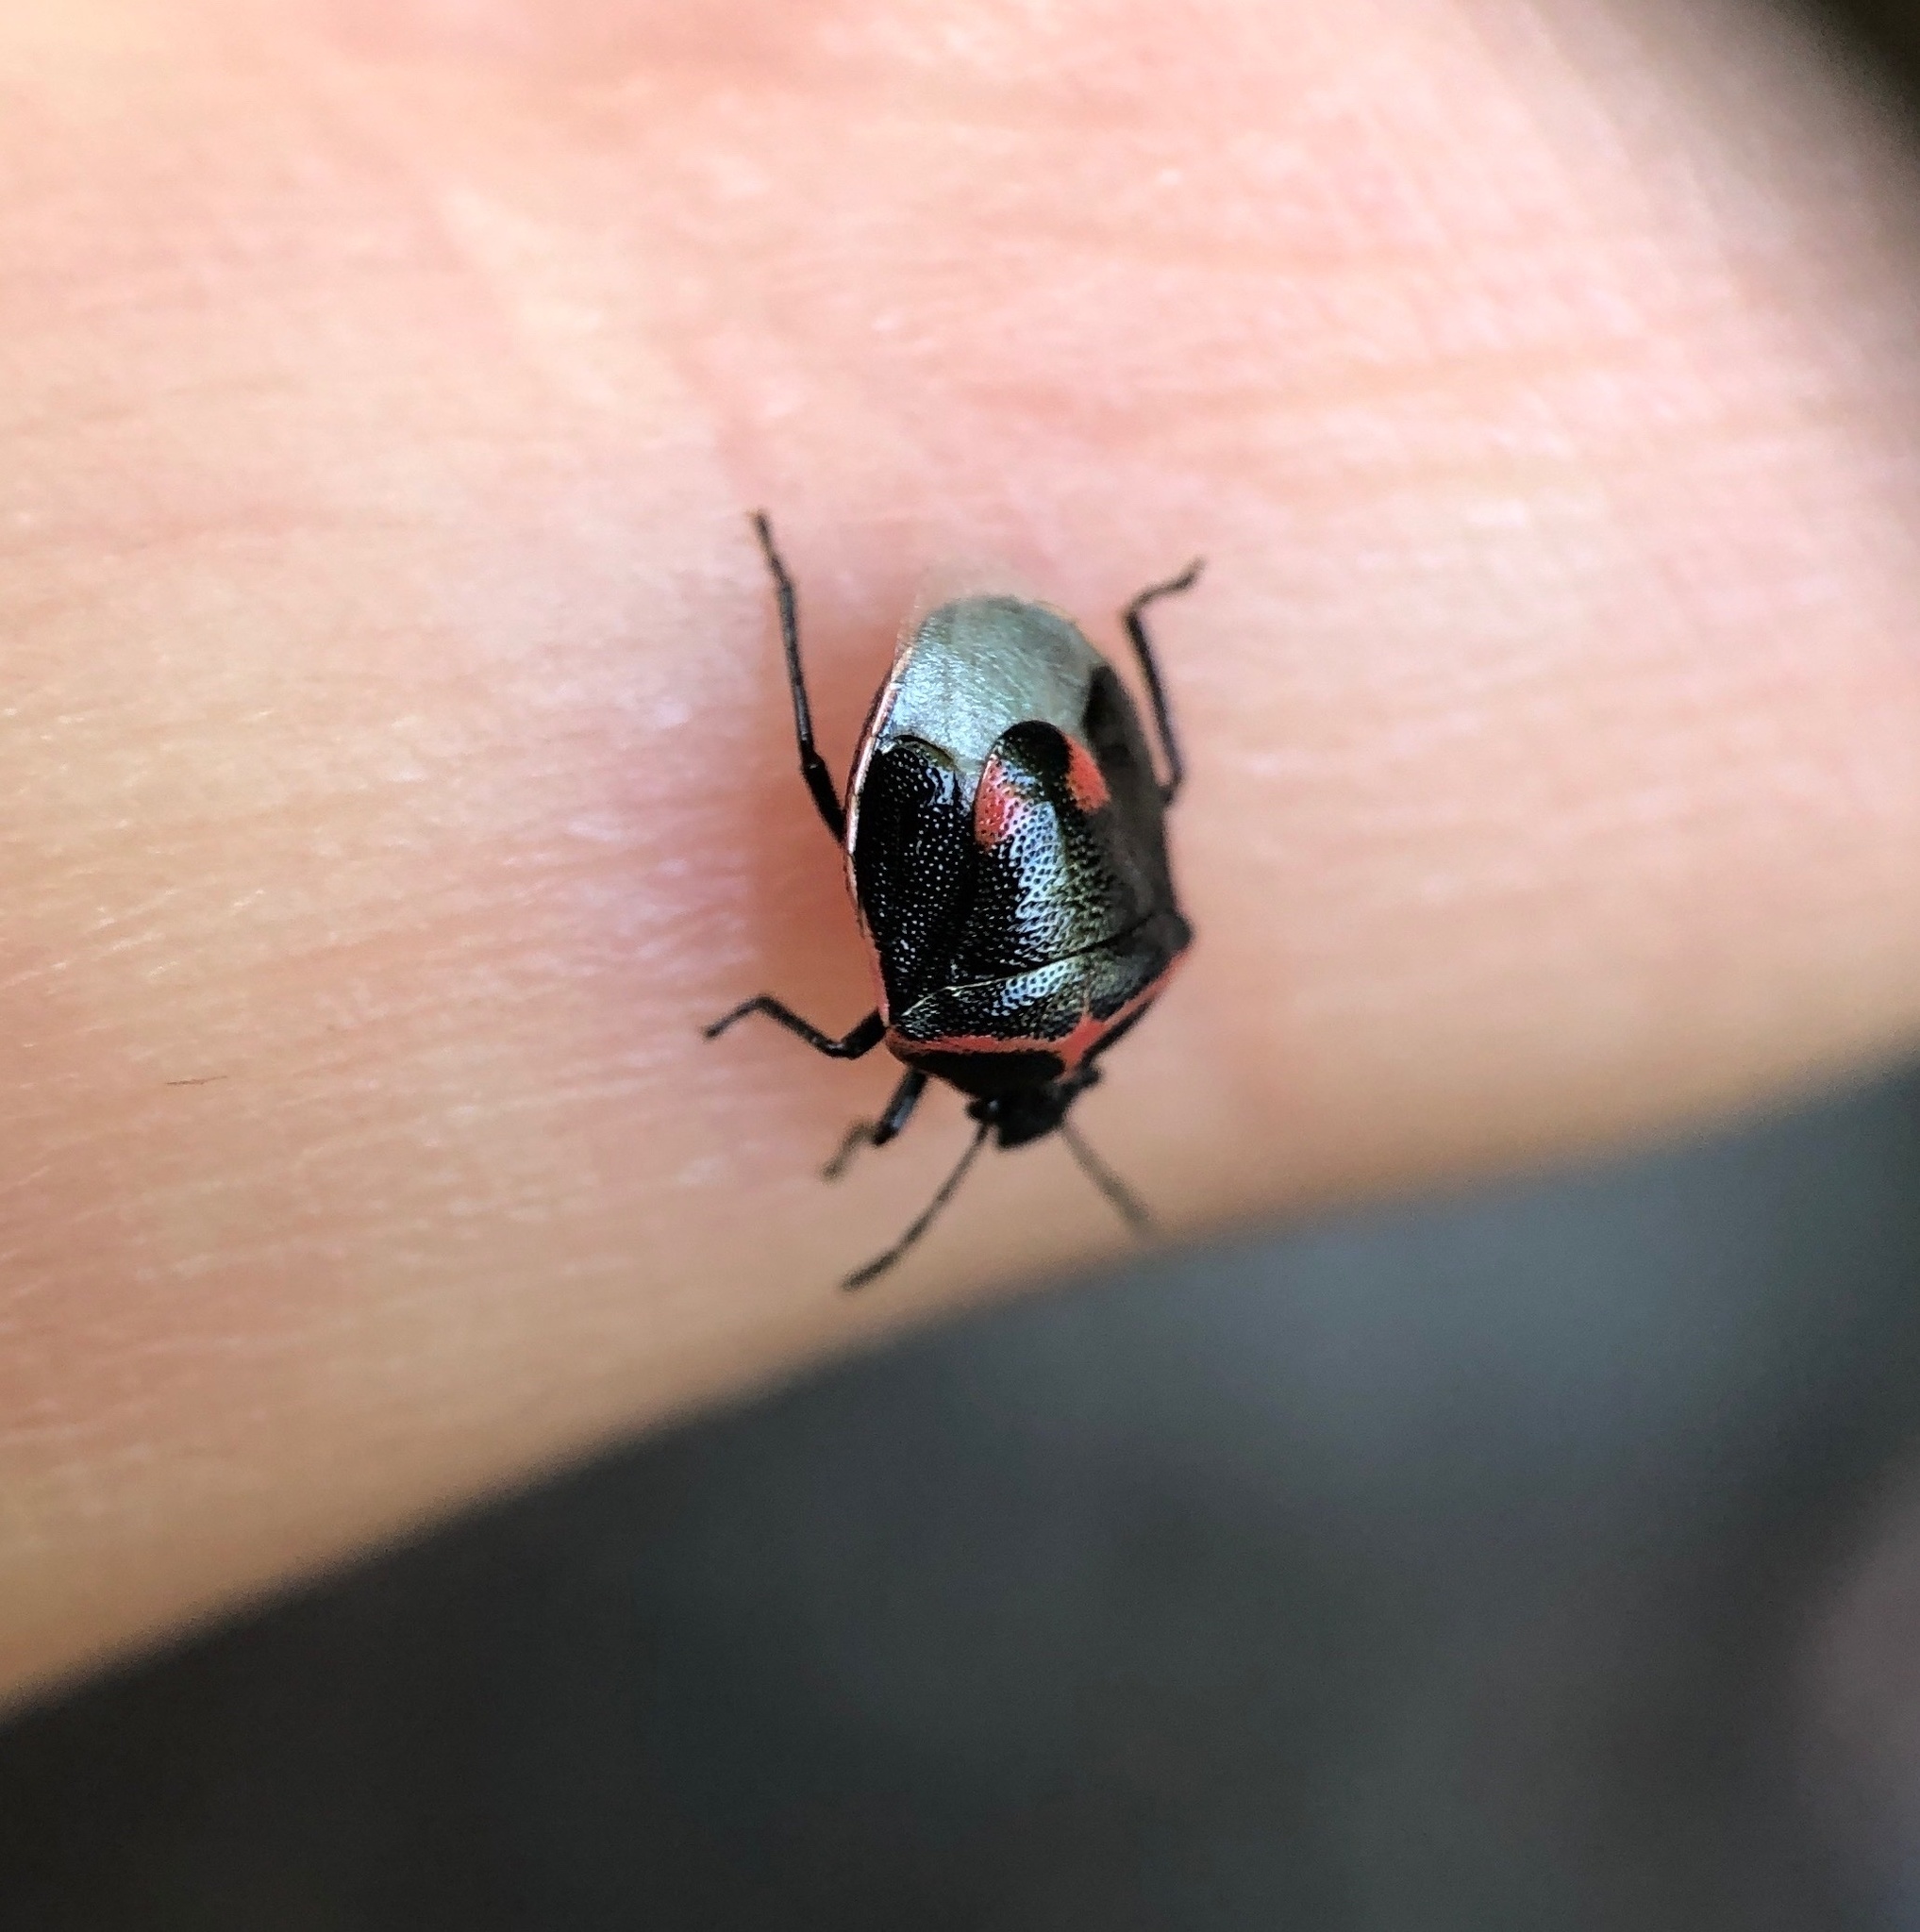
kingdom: Animalia
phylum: Arthropoda
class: Insecta
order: Hemiptera
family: Pentatomidae
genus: Cosmopepla
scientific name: Cosmopepla lintneriana
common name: Twice-stabbed stink bug
